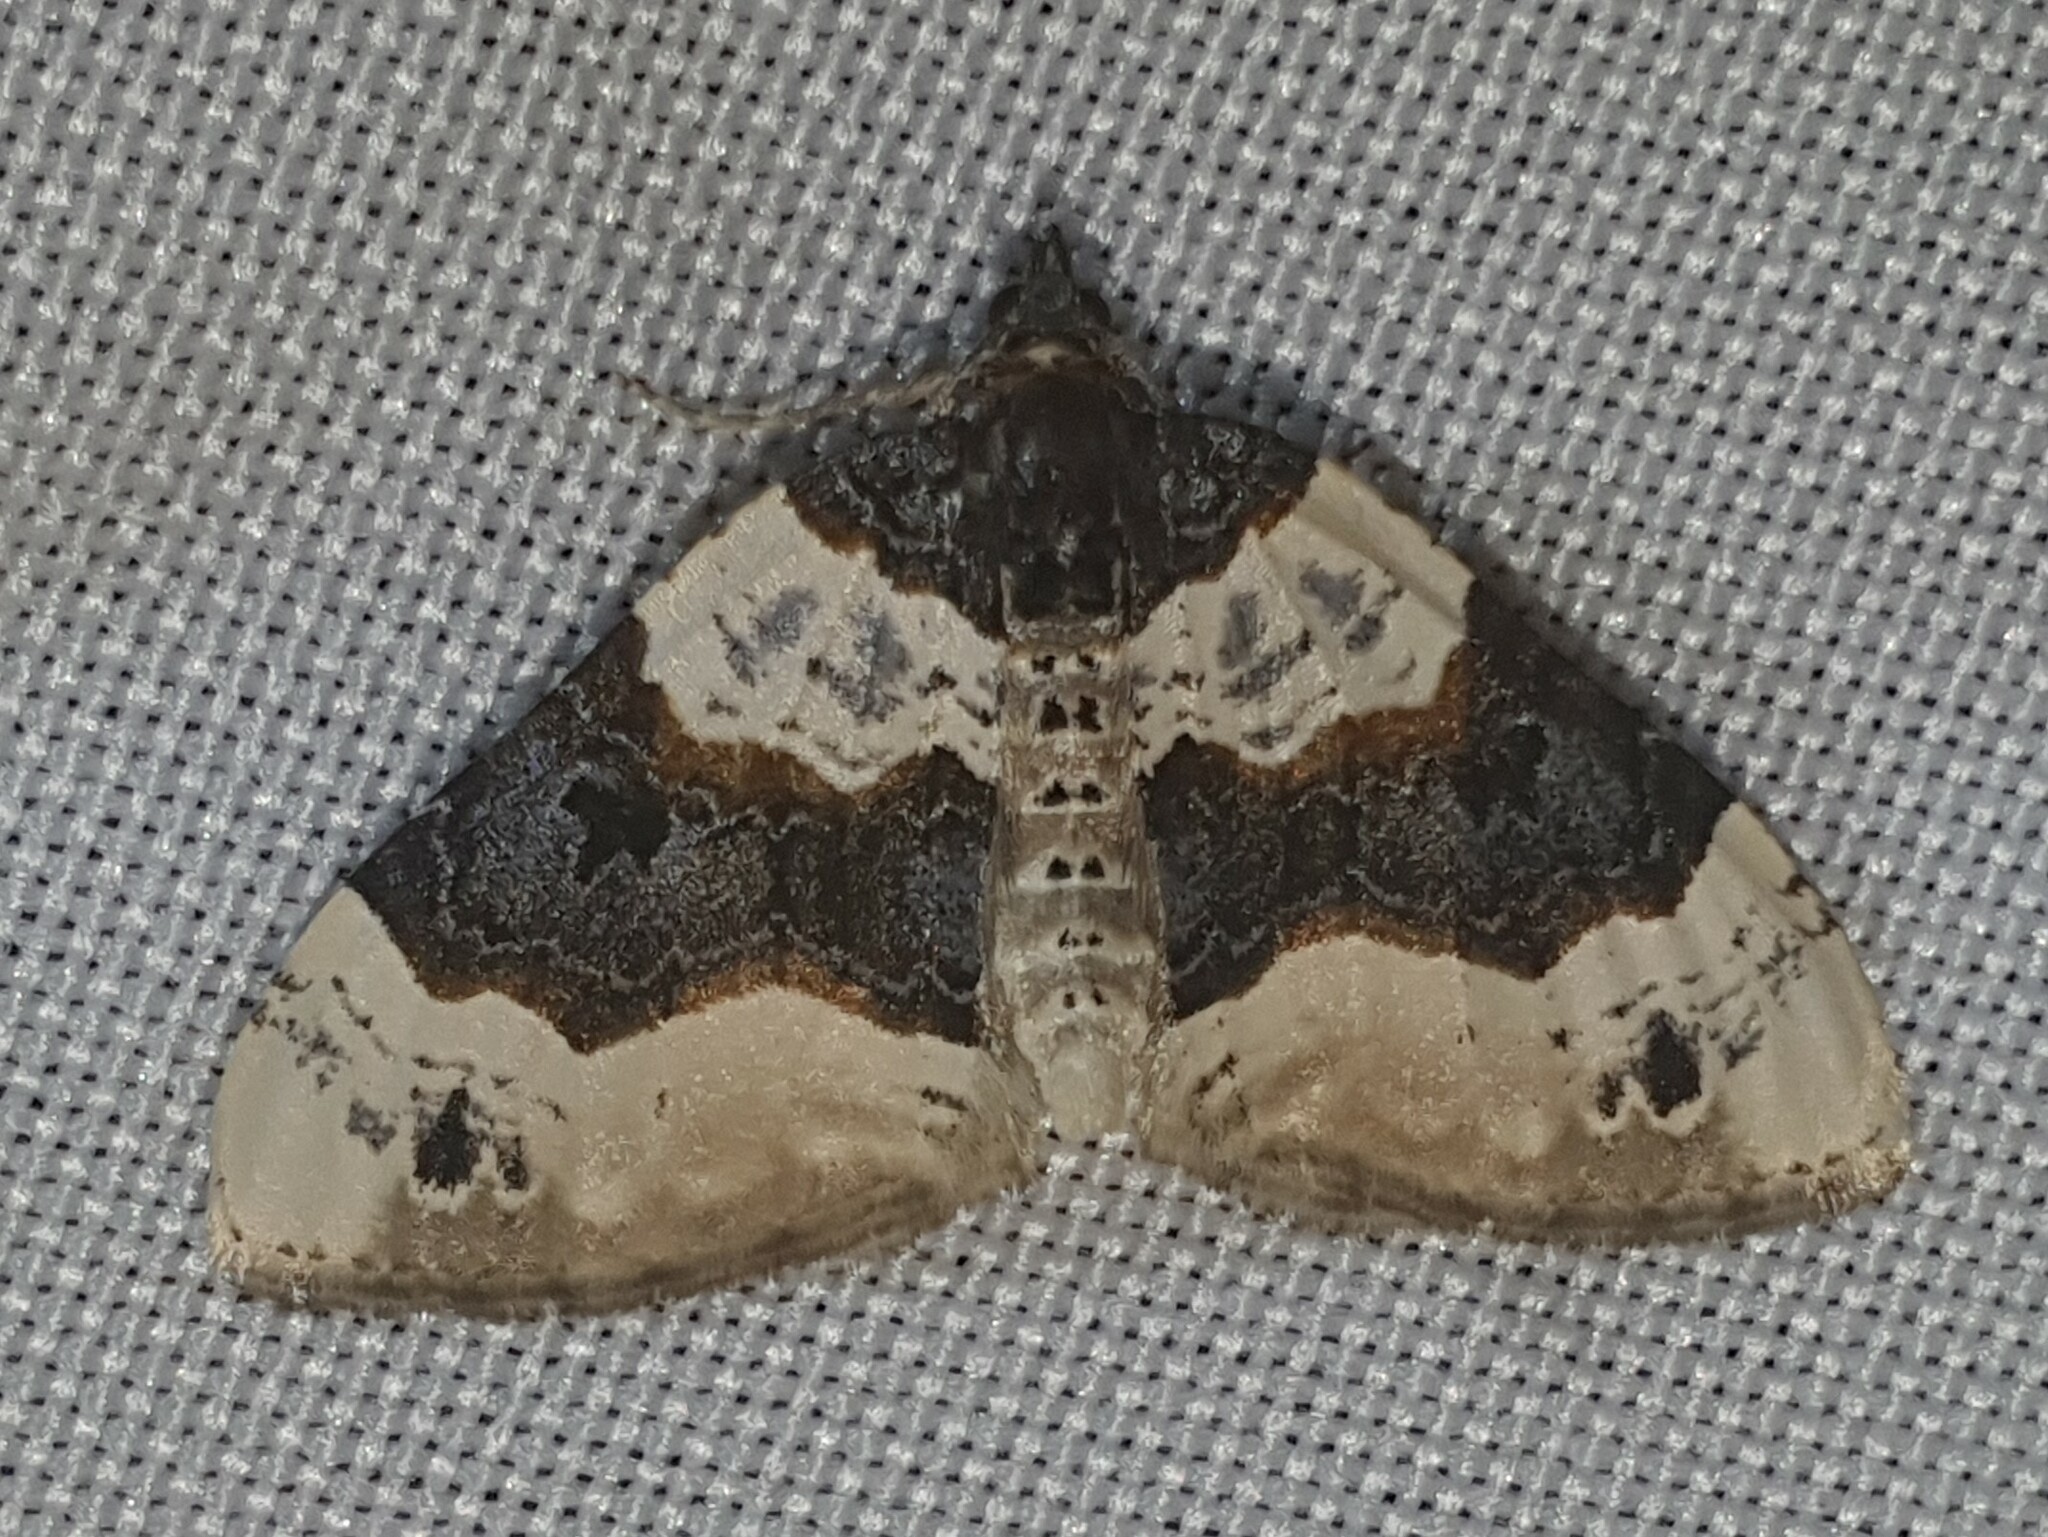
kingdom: Animalia
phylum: Arthropoda
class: Insecta
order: Lepidoptera
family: Geometridae
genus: Cosmorhoe
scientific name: Cosmorhoe ocellata
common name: Purple bar
